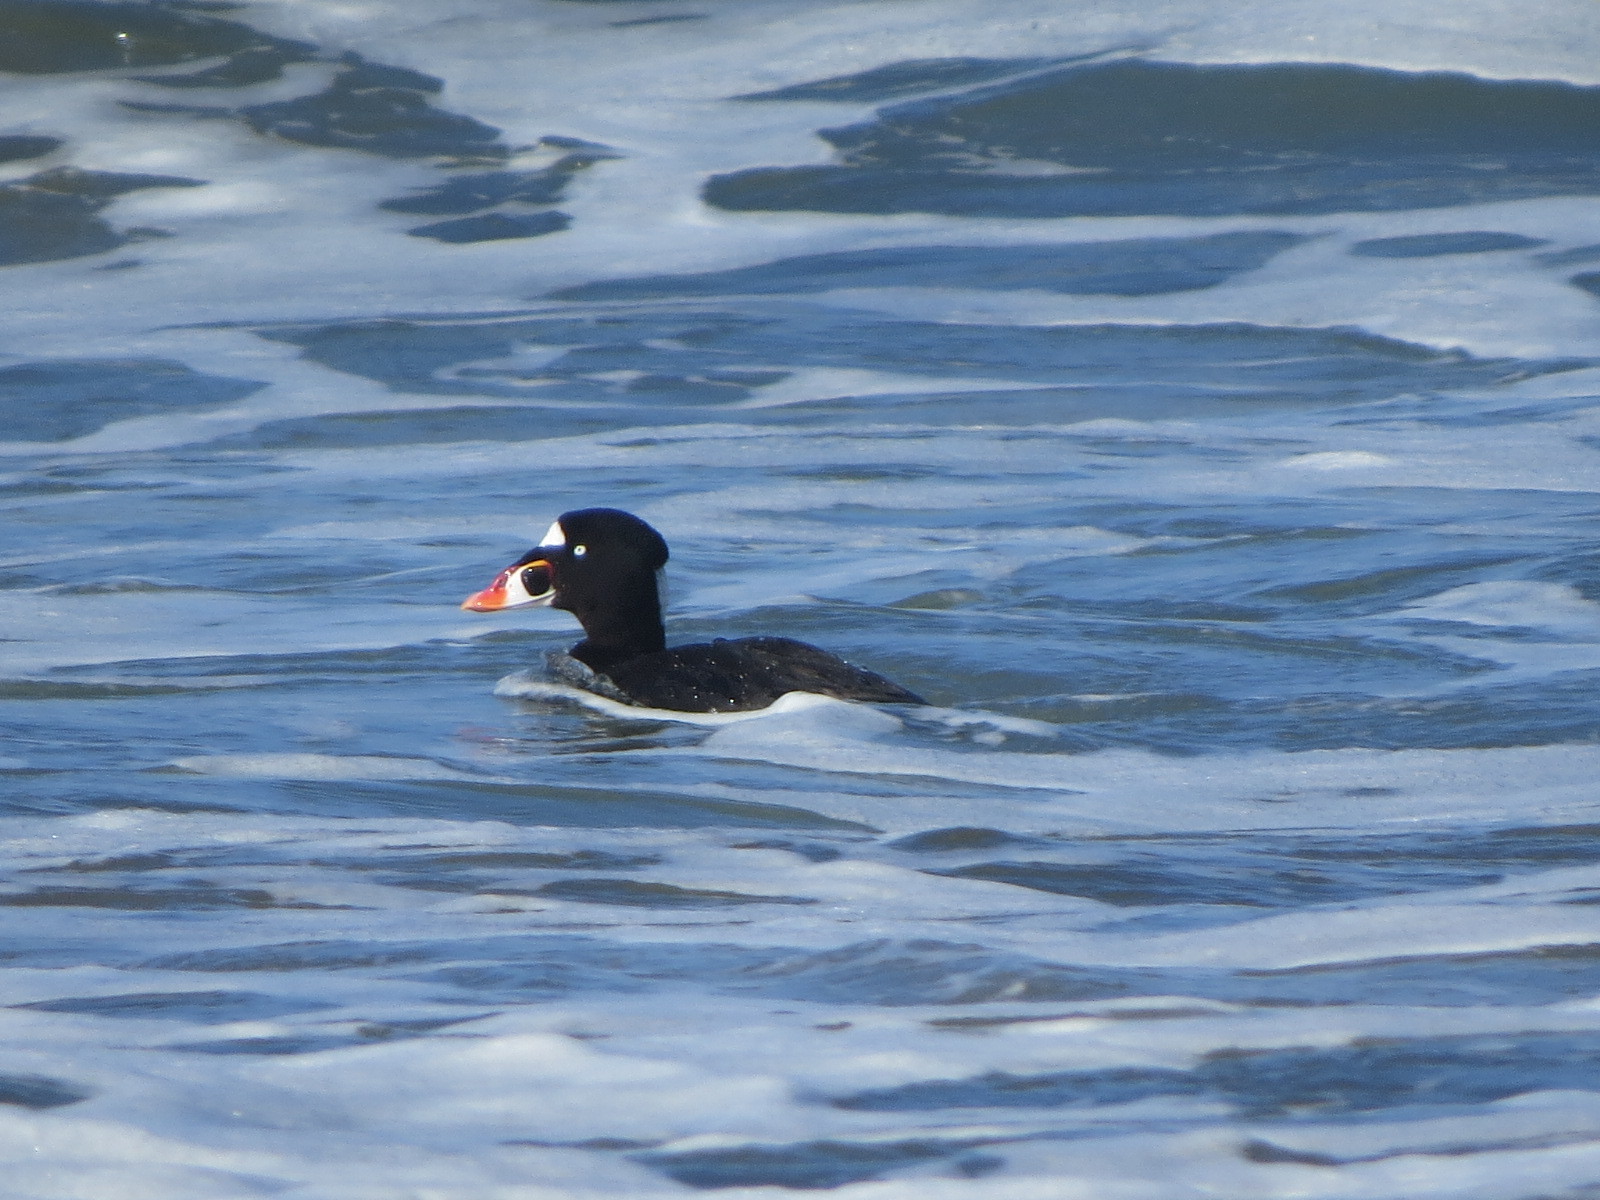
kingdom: Animalia
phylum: Chordata
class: Aves
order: Anseriformes
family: Anatidae
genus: Melanitta
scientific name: Melanitta perspicillata
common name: Surf scoter
